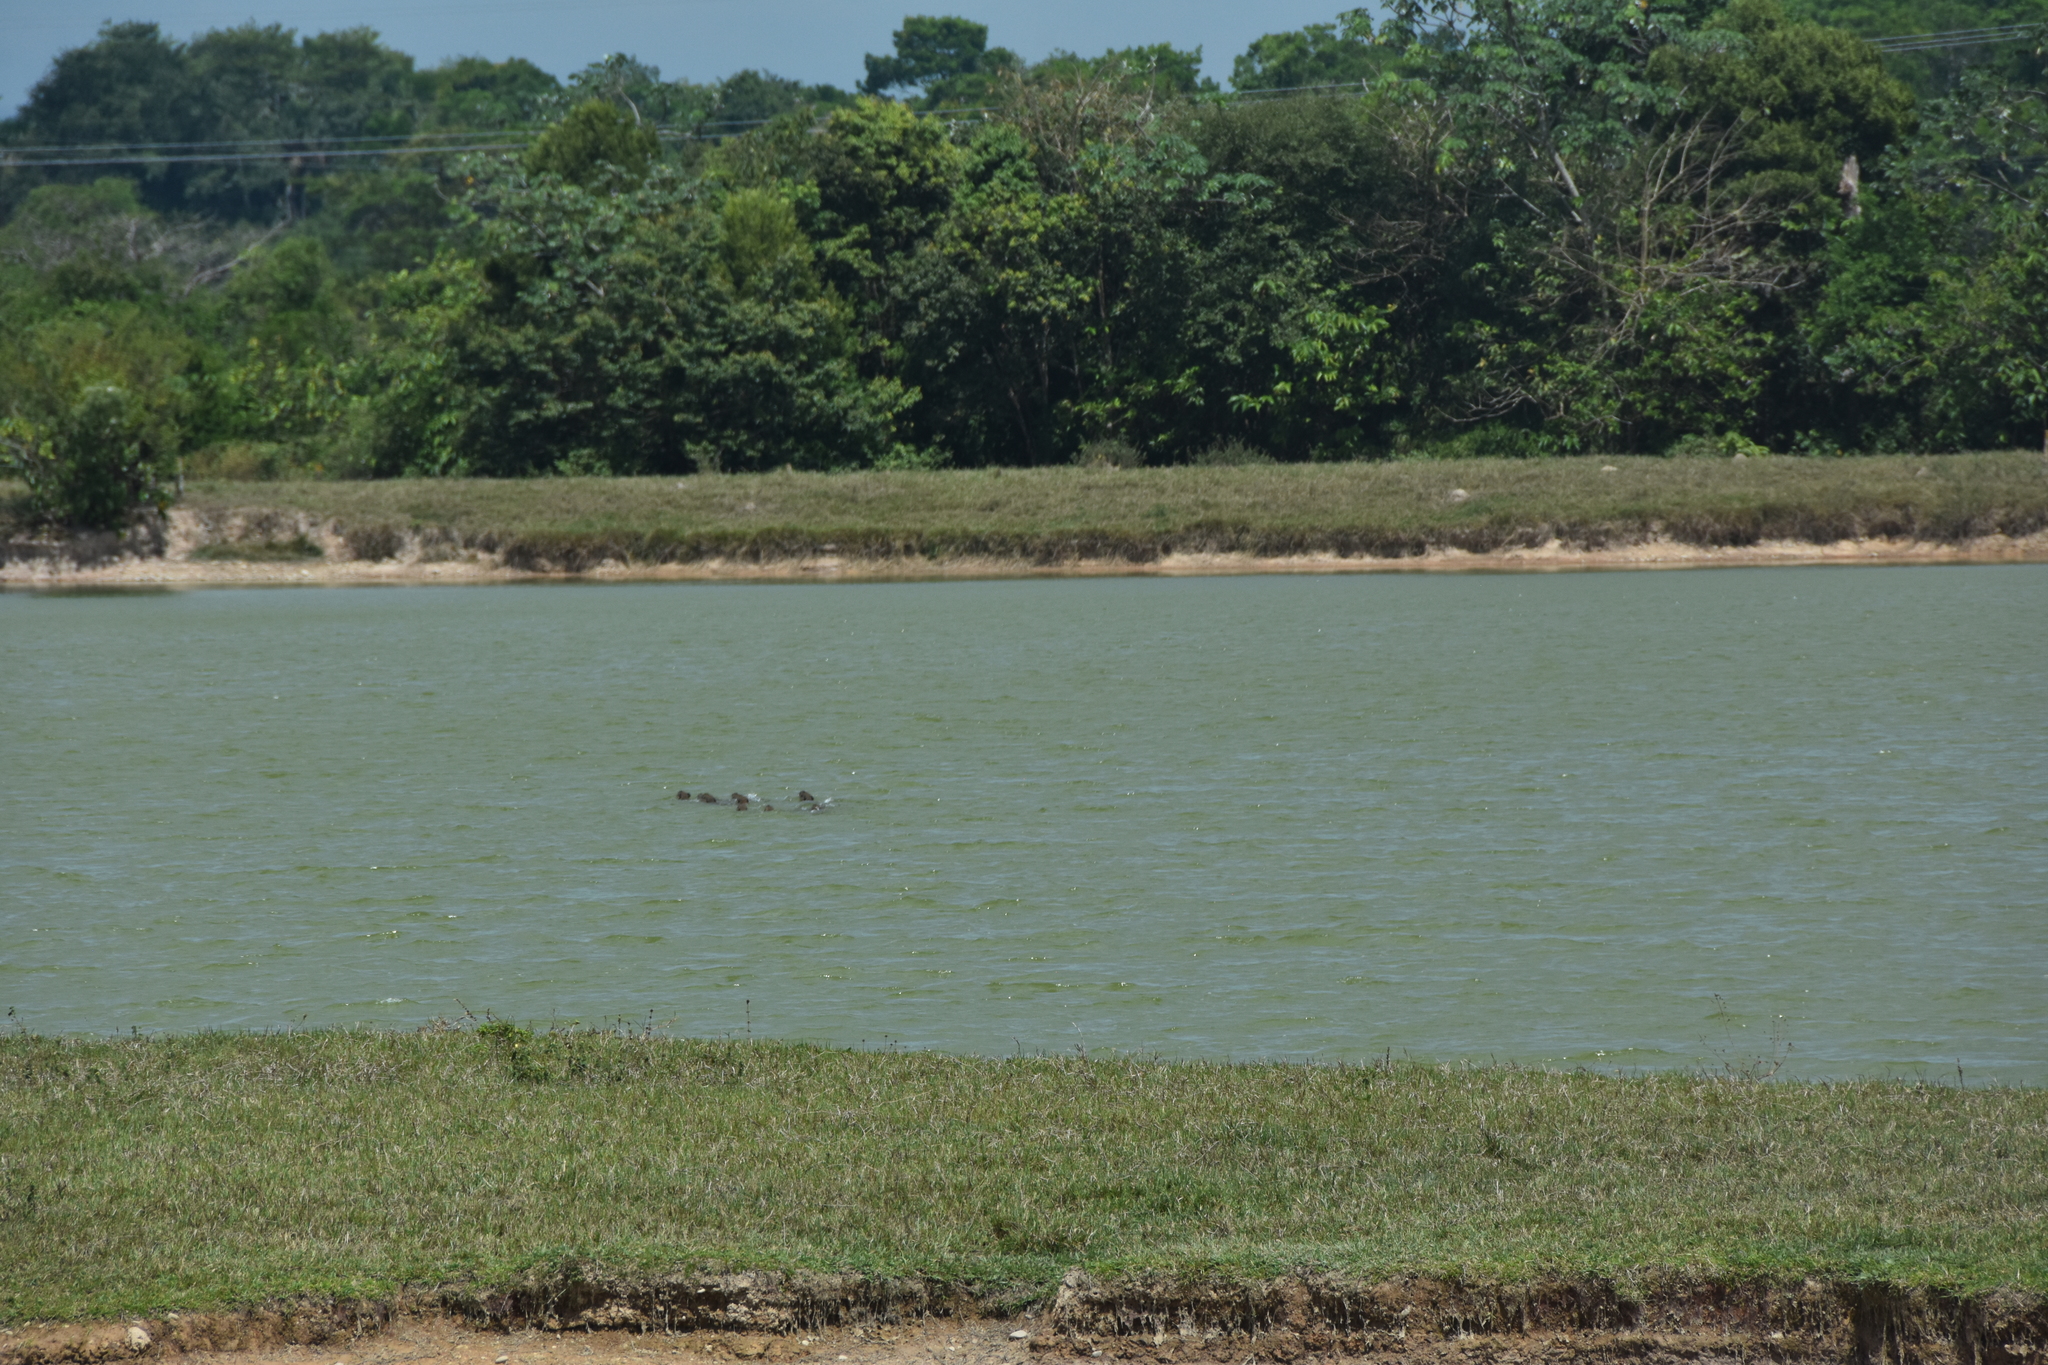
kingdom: Animalia
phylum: Chordata
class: Mammalia
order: Rodentia
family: Caviidae
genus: Hydrochoerus
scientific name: Hydrochoerus hydrochaeris
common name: Capybara
